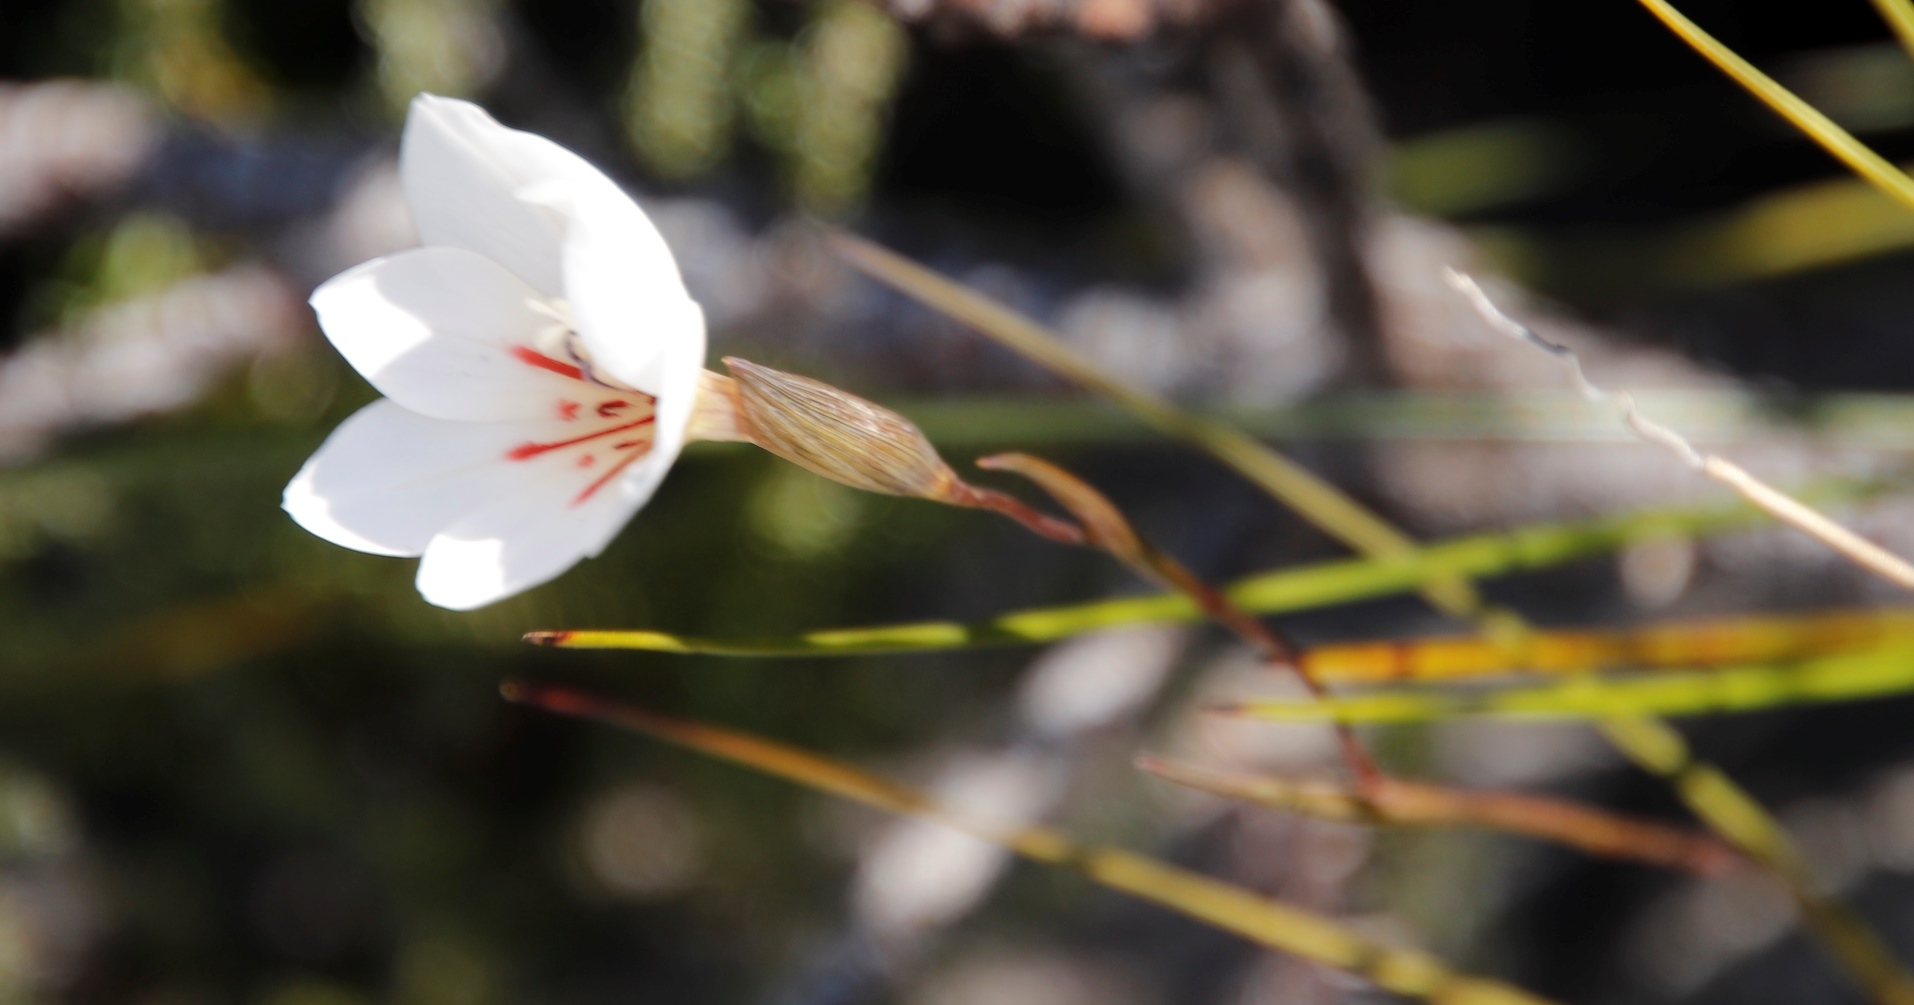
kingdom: Plantae
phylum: Tracheophyta
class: Liliopsida
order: Asparagales
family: Iridaceae
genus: Gladiolus
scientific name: Gladiolus debilis
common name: Painted-lady
